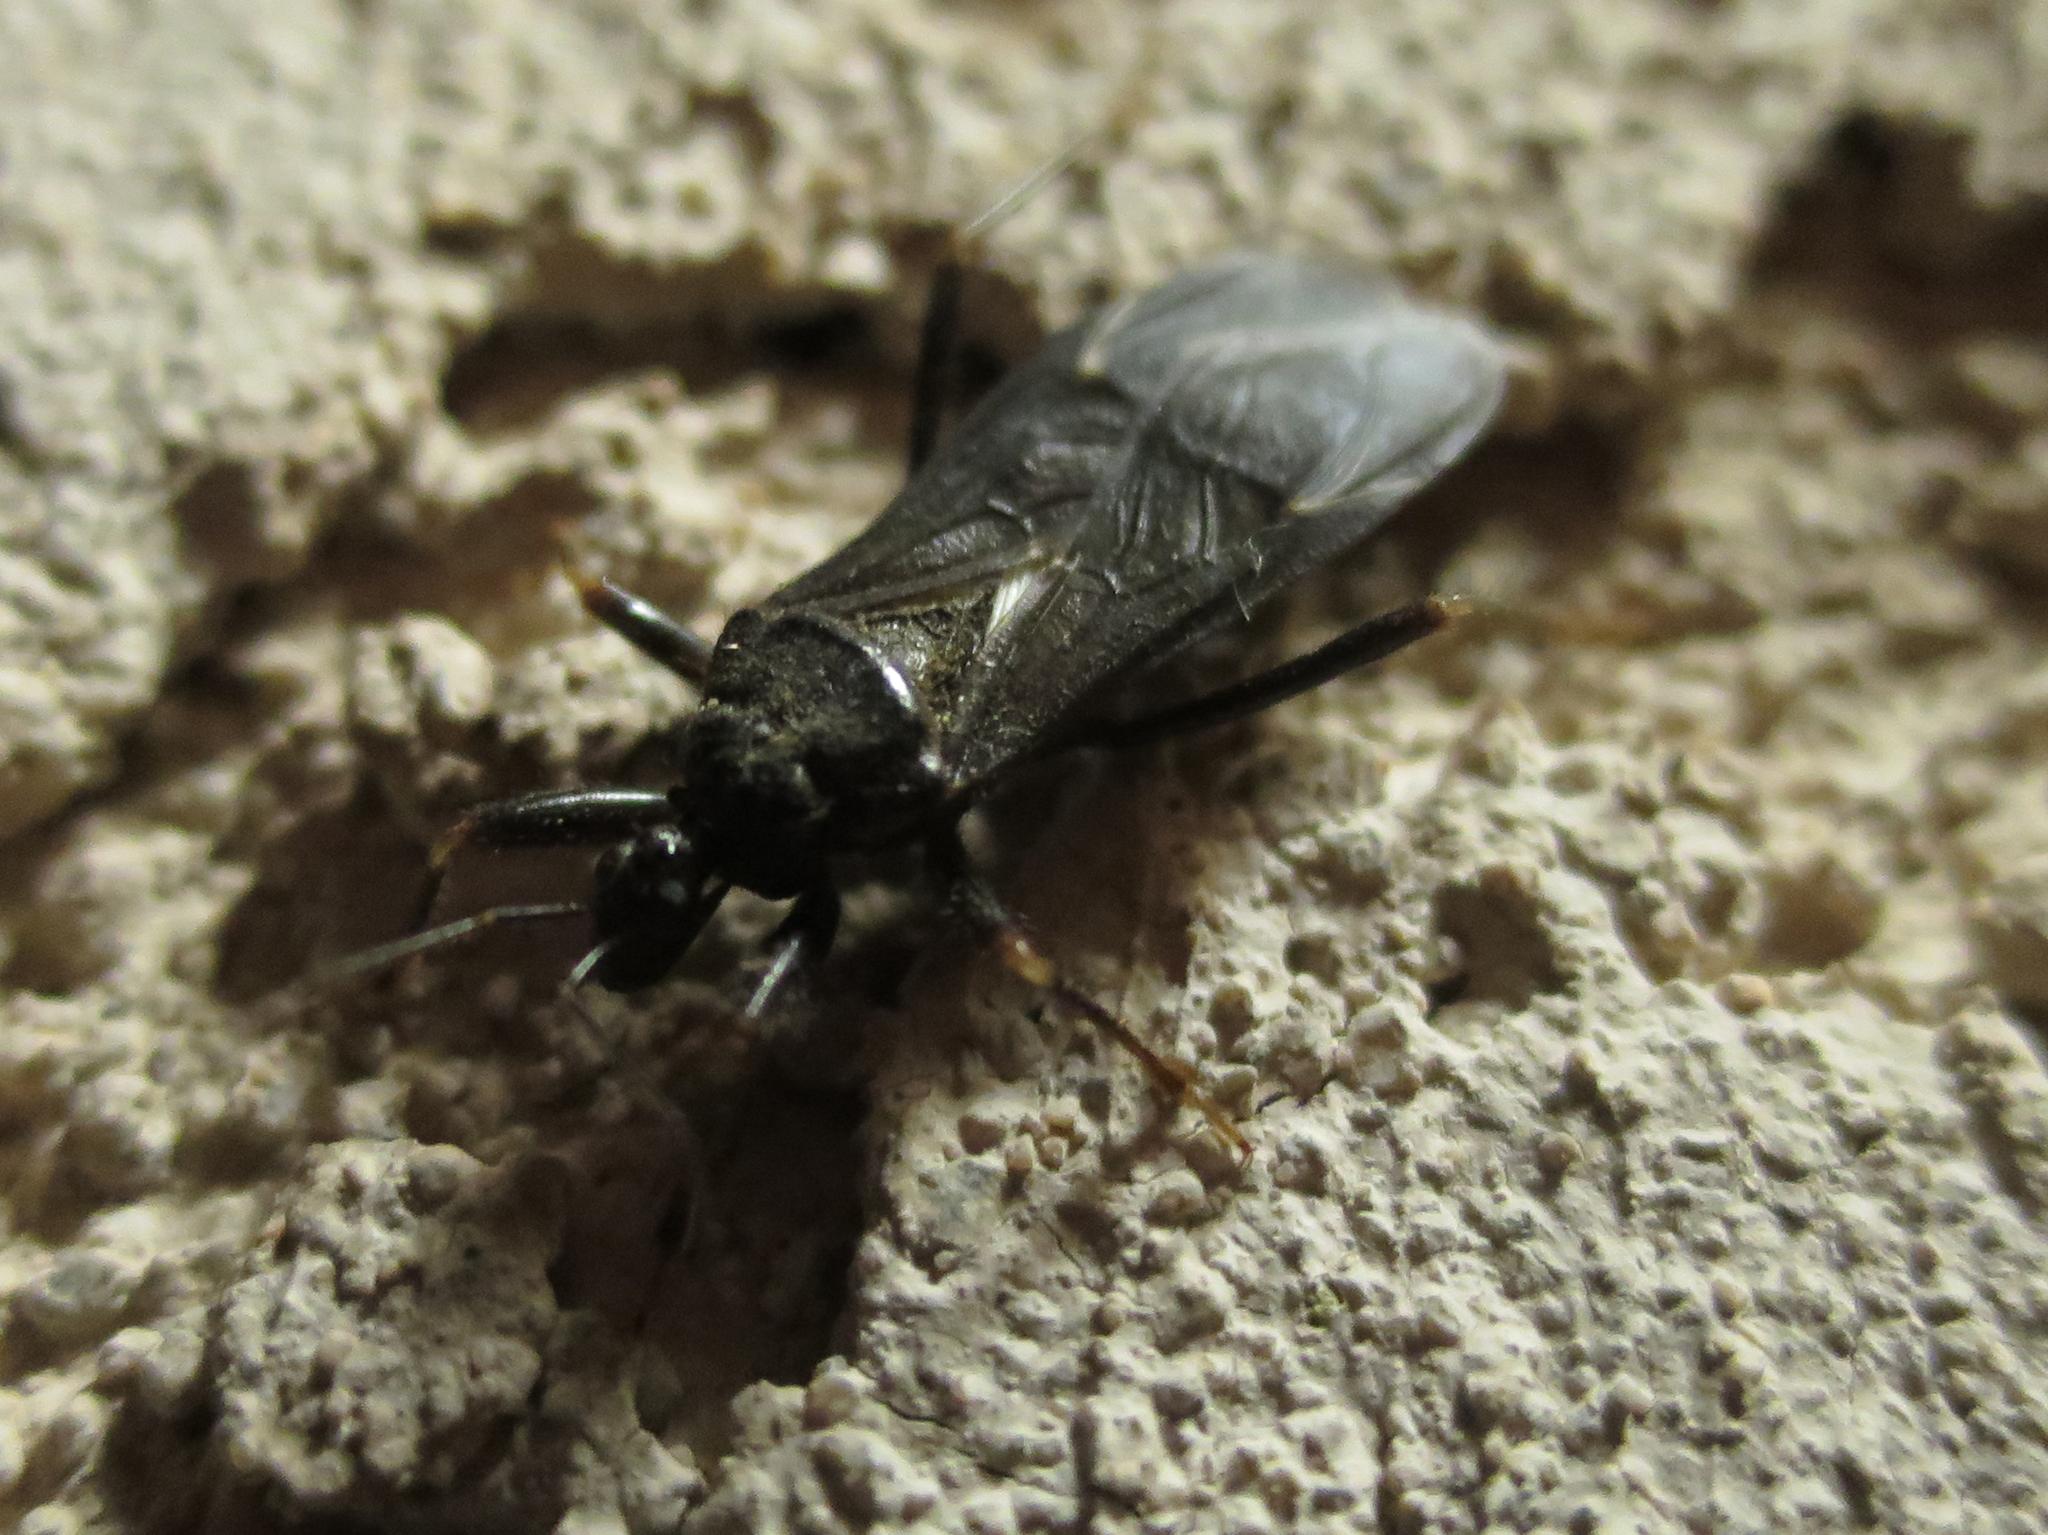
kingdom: Animalia
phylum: Arthropoda
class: Insecta
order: Hemiptera
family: Reduviidae
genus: Reduvius
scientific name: Reduvius personatus
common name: Masked hunter
